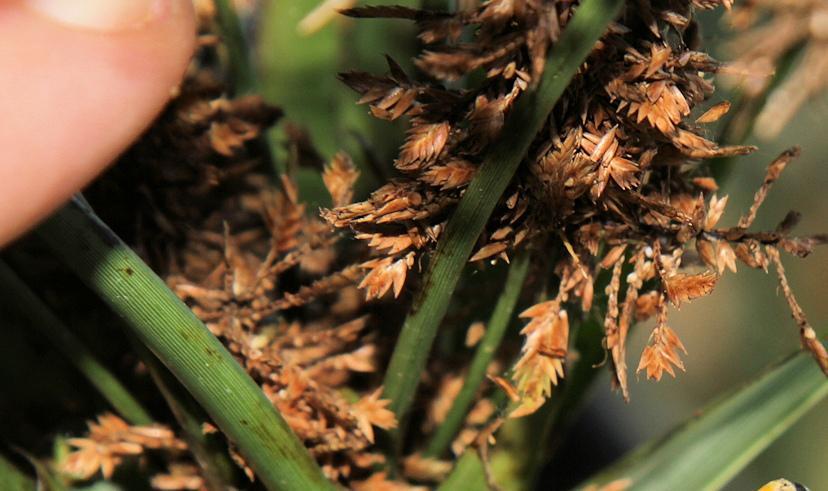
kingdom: Plantae
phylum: Tracheophyta
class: Liliopsida
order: Poales
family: Cyperaceae
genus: Cyperus
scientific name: Cyperus dives
